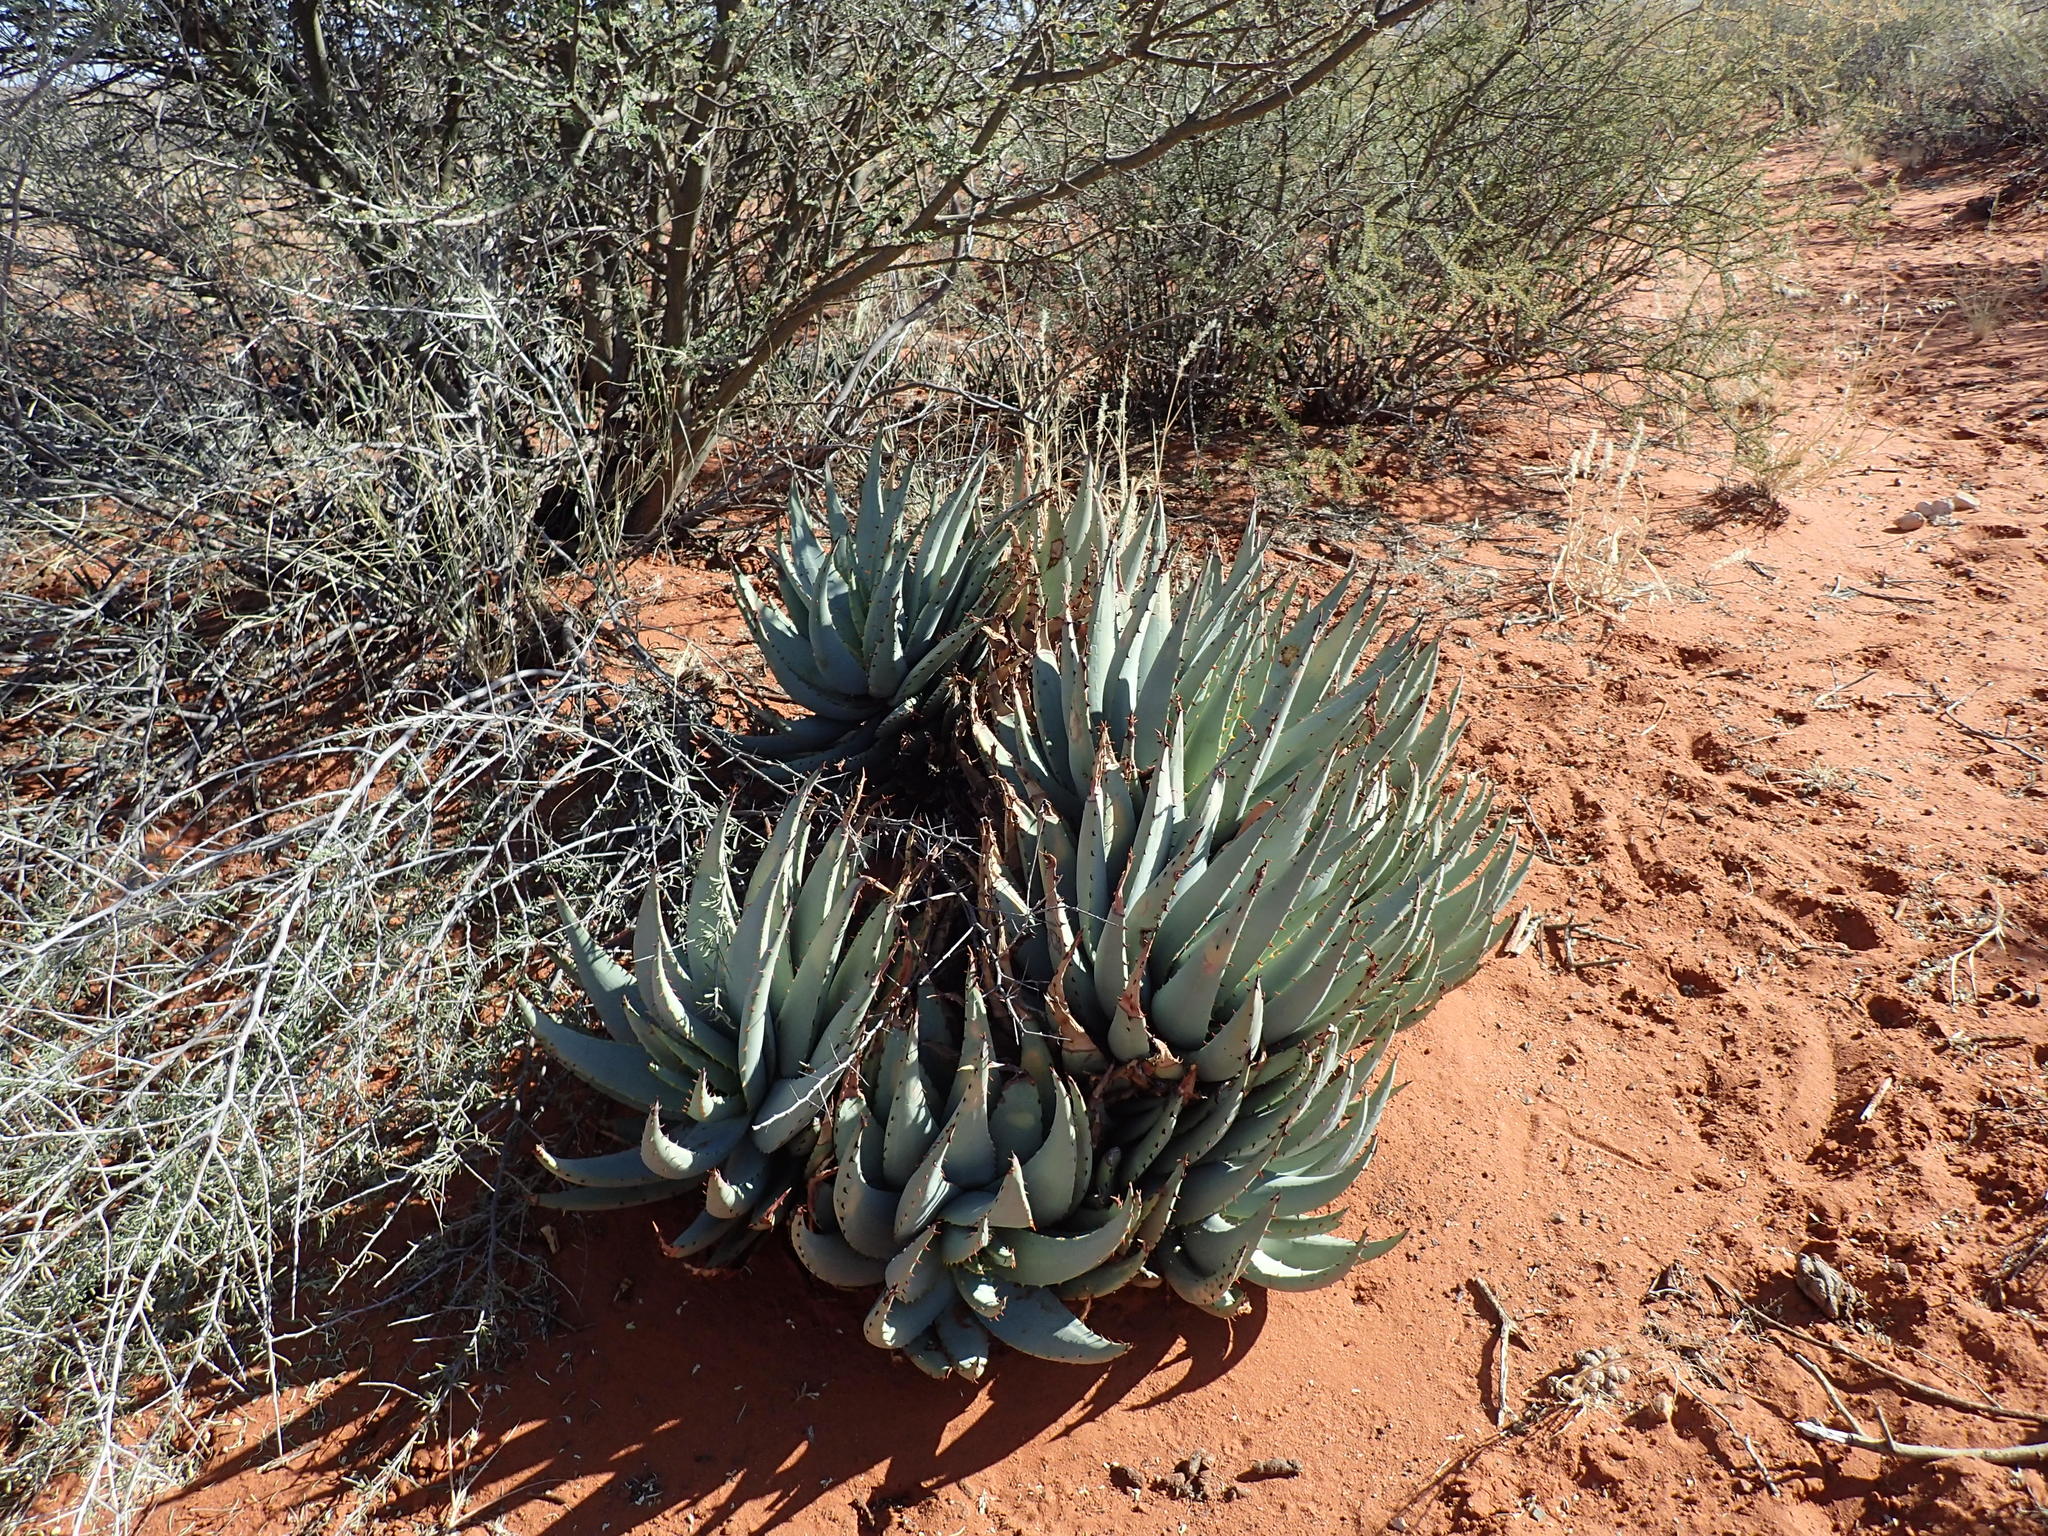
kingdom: Plantae
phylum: Tracheophyta
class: Liliopsida
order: Asparagales
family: Asphodelaceae
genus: Aloe
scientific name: Aloe claviflora
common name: Cannon aloe
